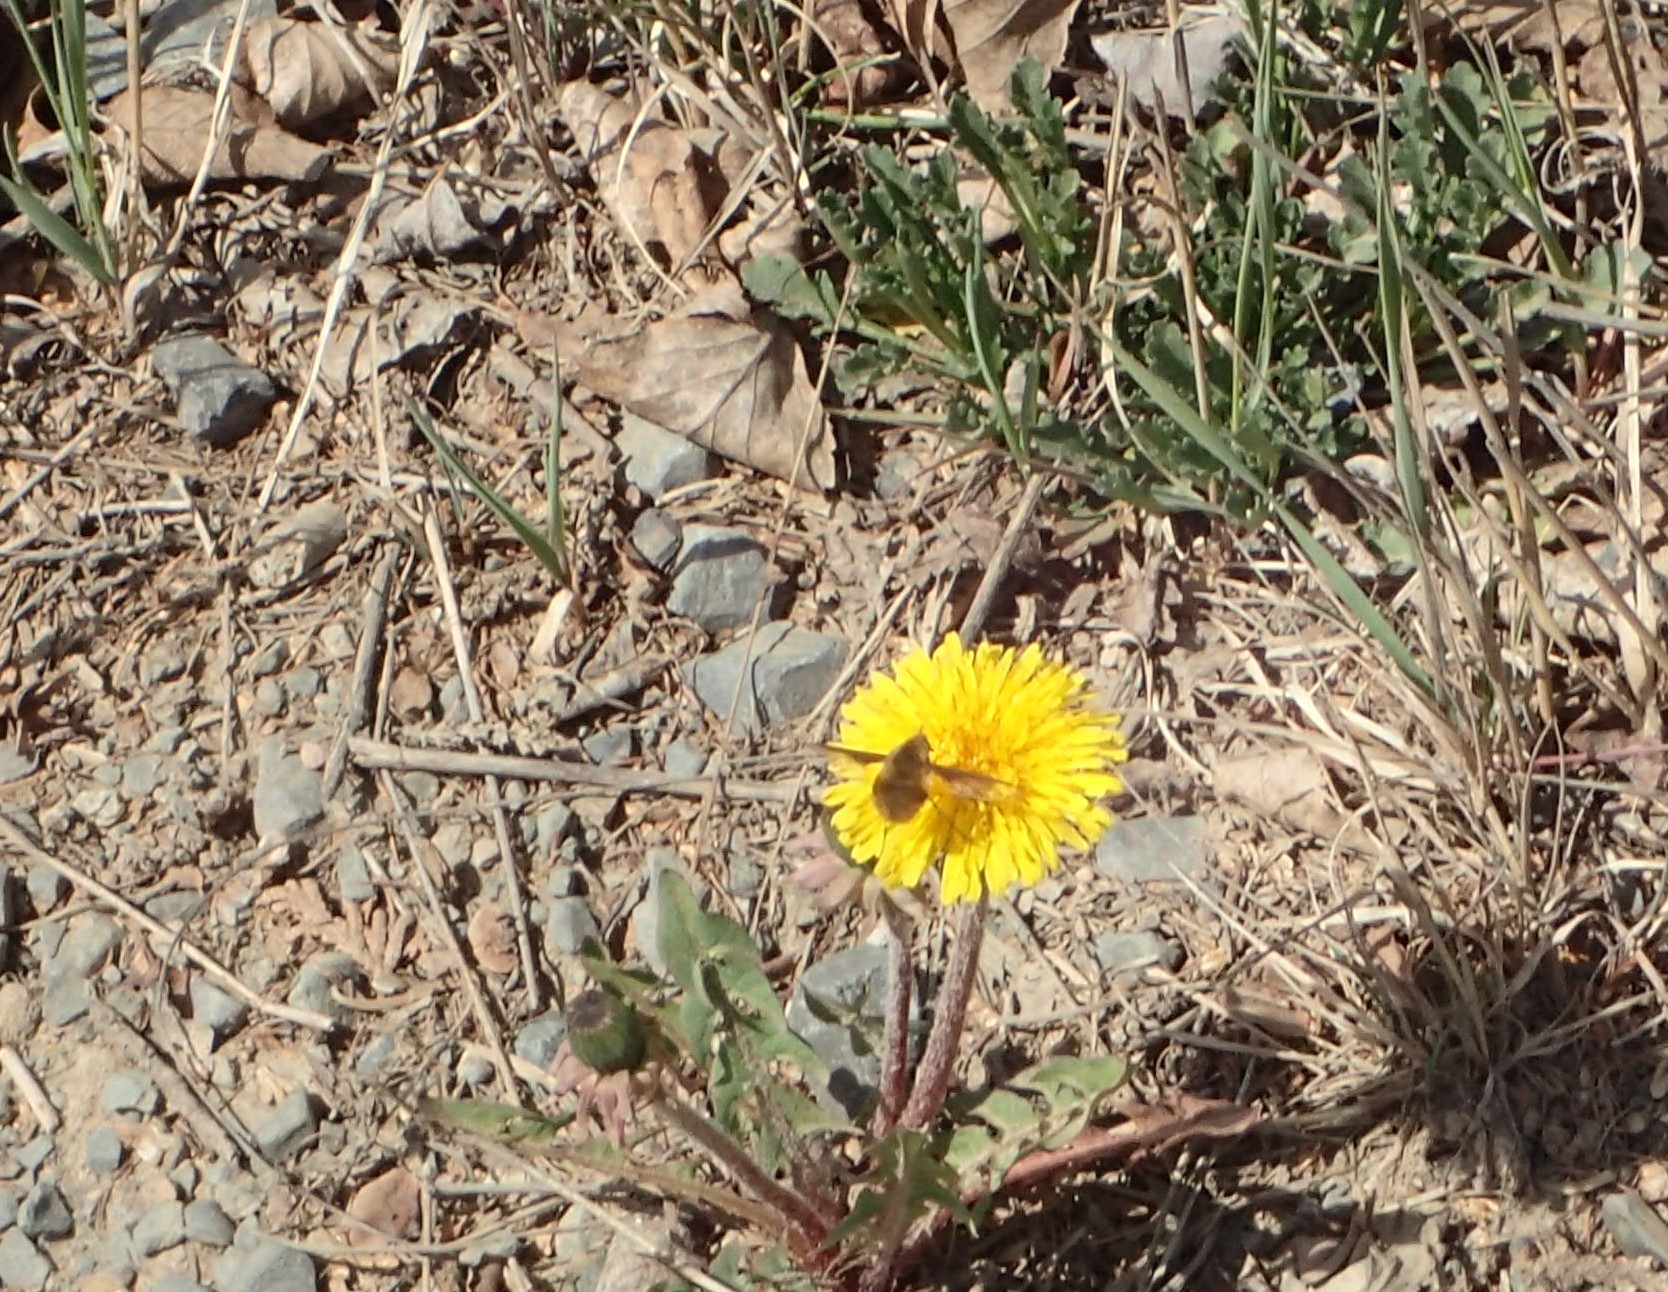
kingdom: Animalia
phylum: Arthropoda
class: Insecta
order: Diptera
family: Bombyliidae
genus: Bombylius
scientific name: Bombylius major
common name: Bee fly
